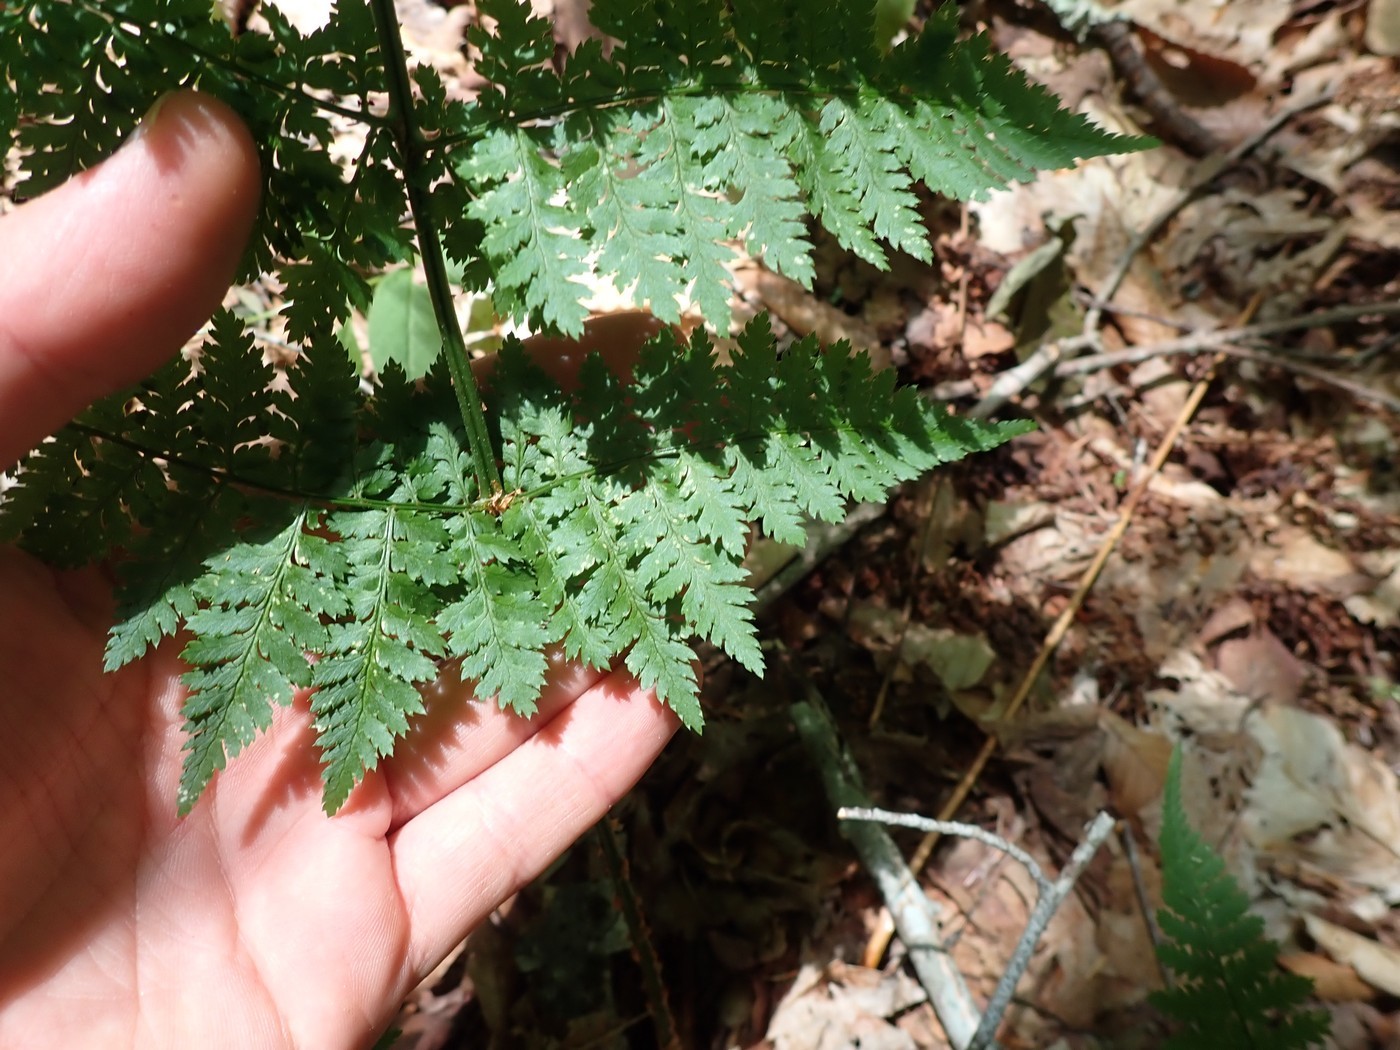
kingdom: Plantae
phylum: Tracheophyta
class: Polypodiopsida
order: Polypodiales
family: Dryopteridaceae
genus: Dryopteris
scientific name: Dryopteris intermedia
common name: Evergreen wood fern
